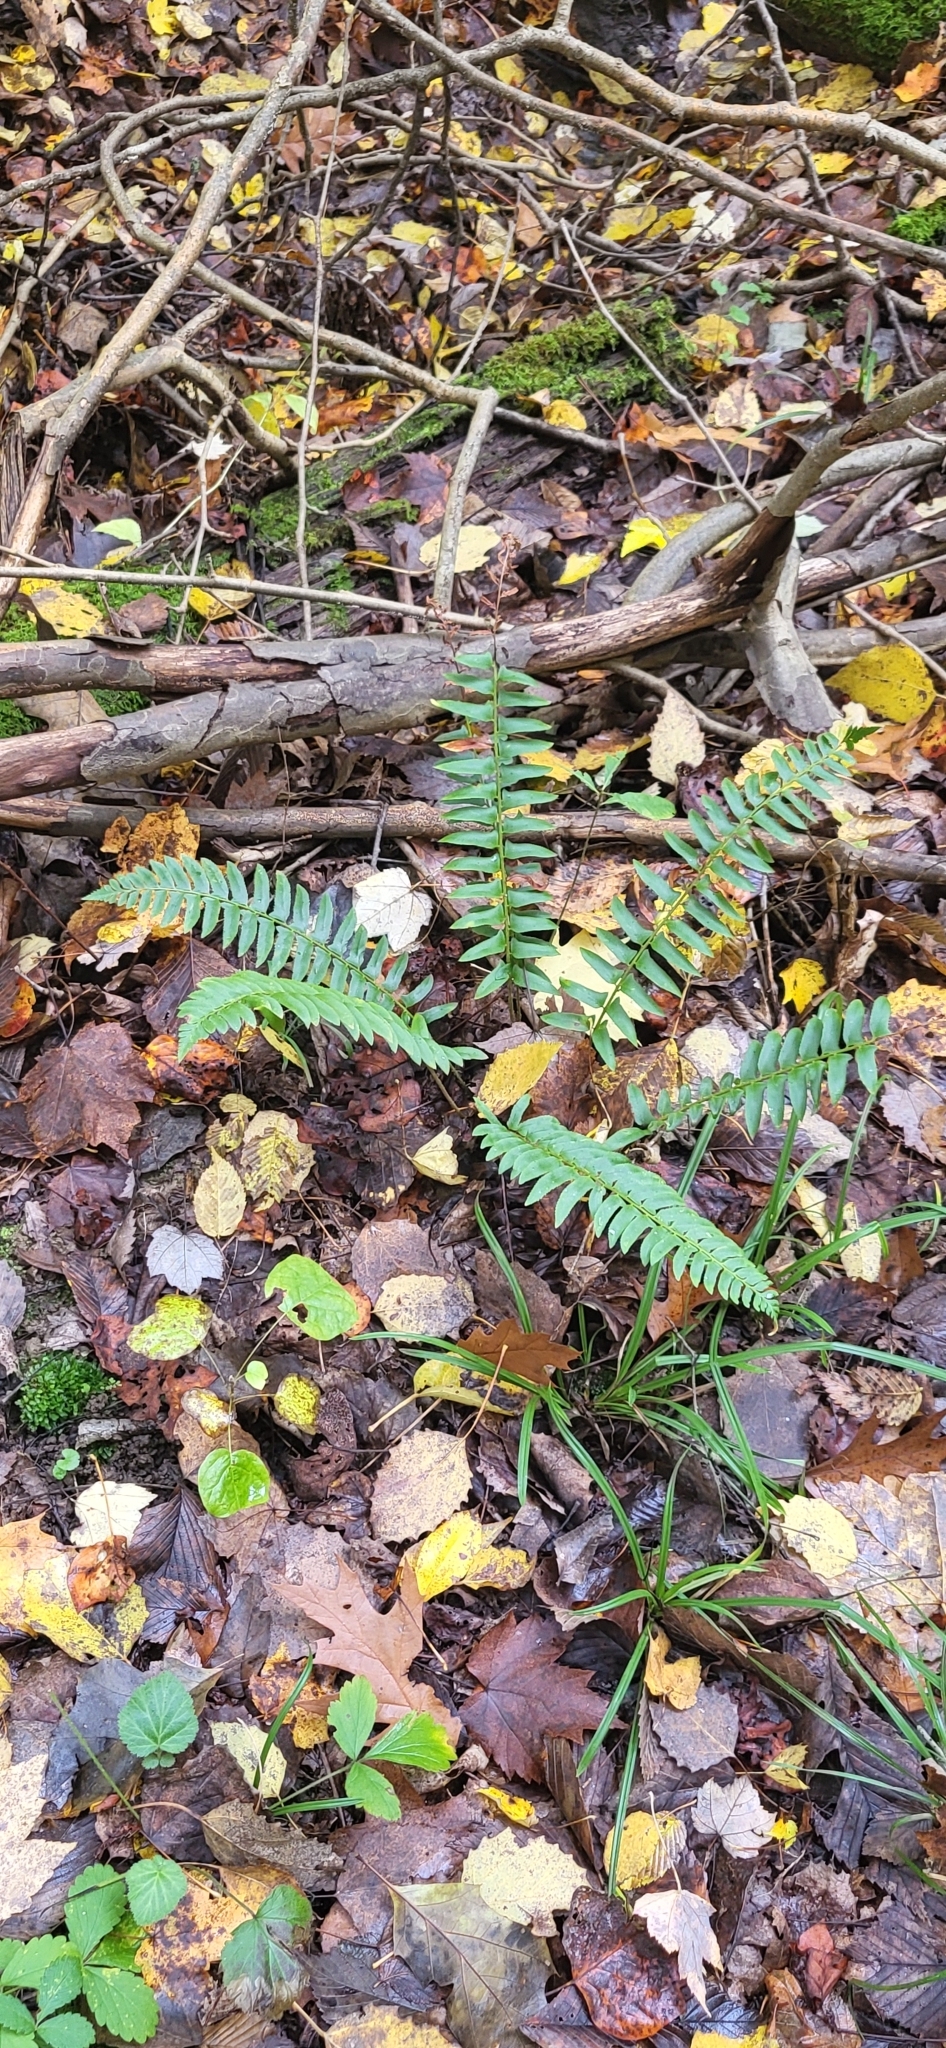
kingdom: Plantae
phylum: Tracheophyta
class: Polypodiopsida
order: Polypodiales
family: Dryopteridaceae
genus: Polystichum
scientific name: Polystichum acrostichoides
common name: Christmas fern
